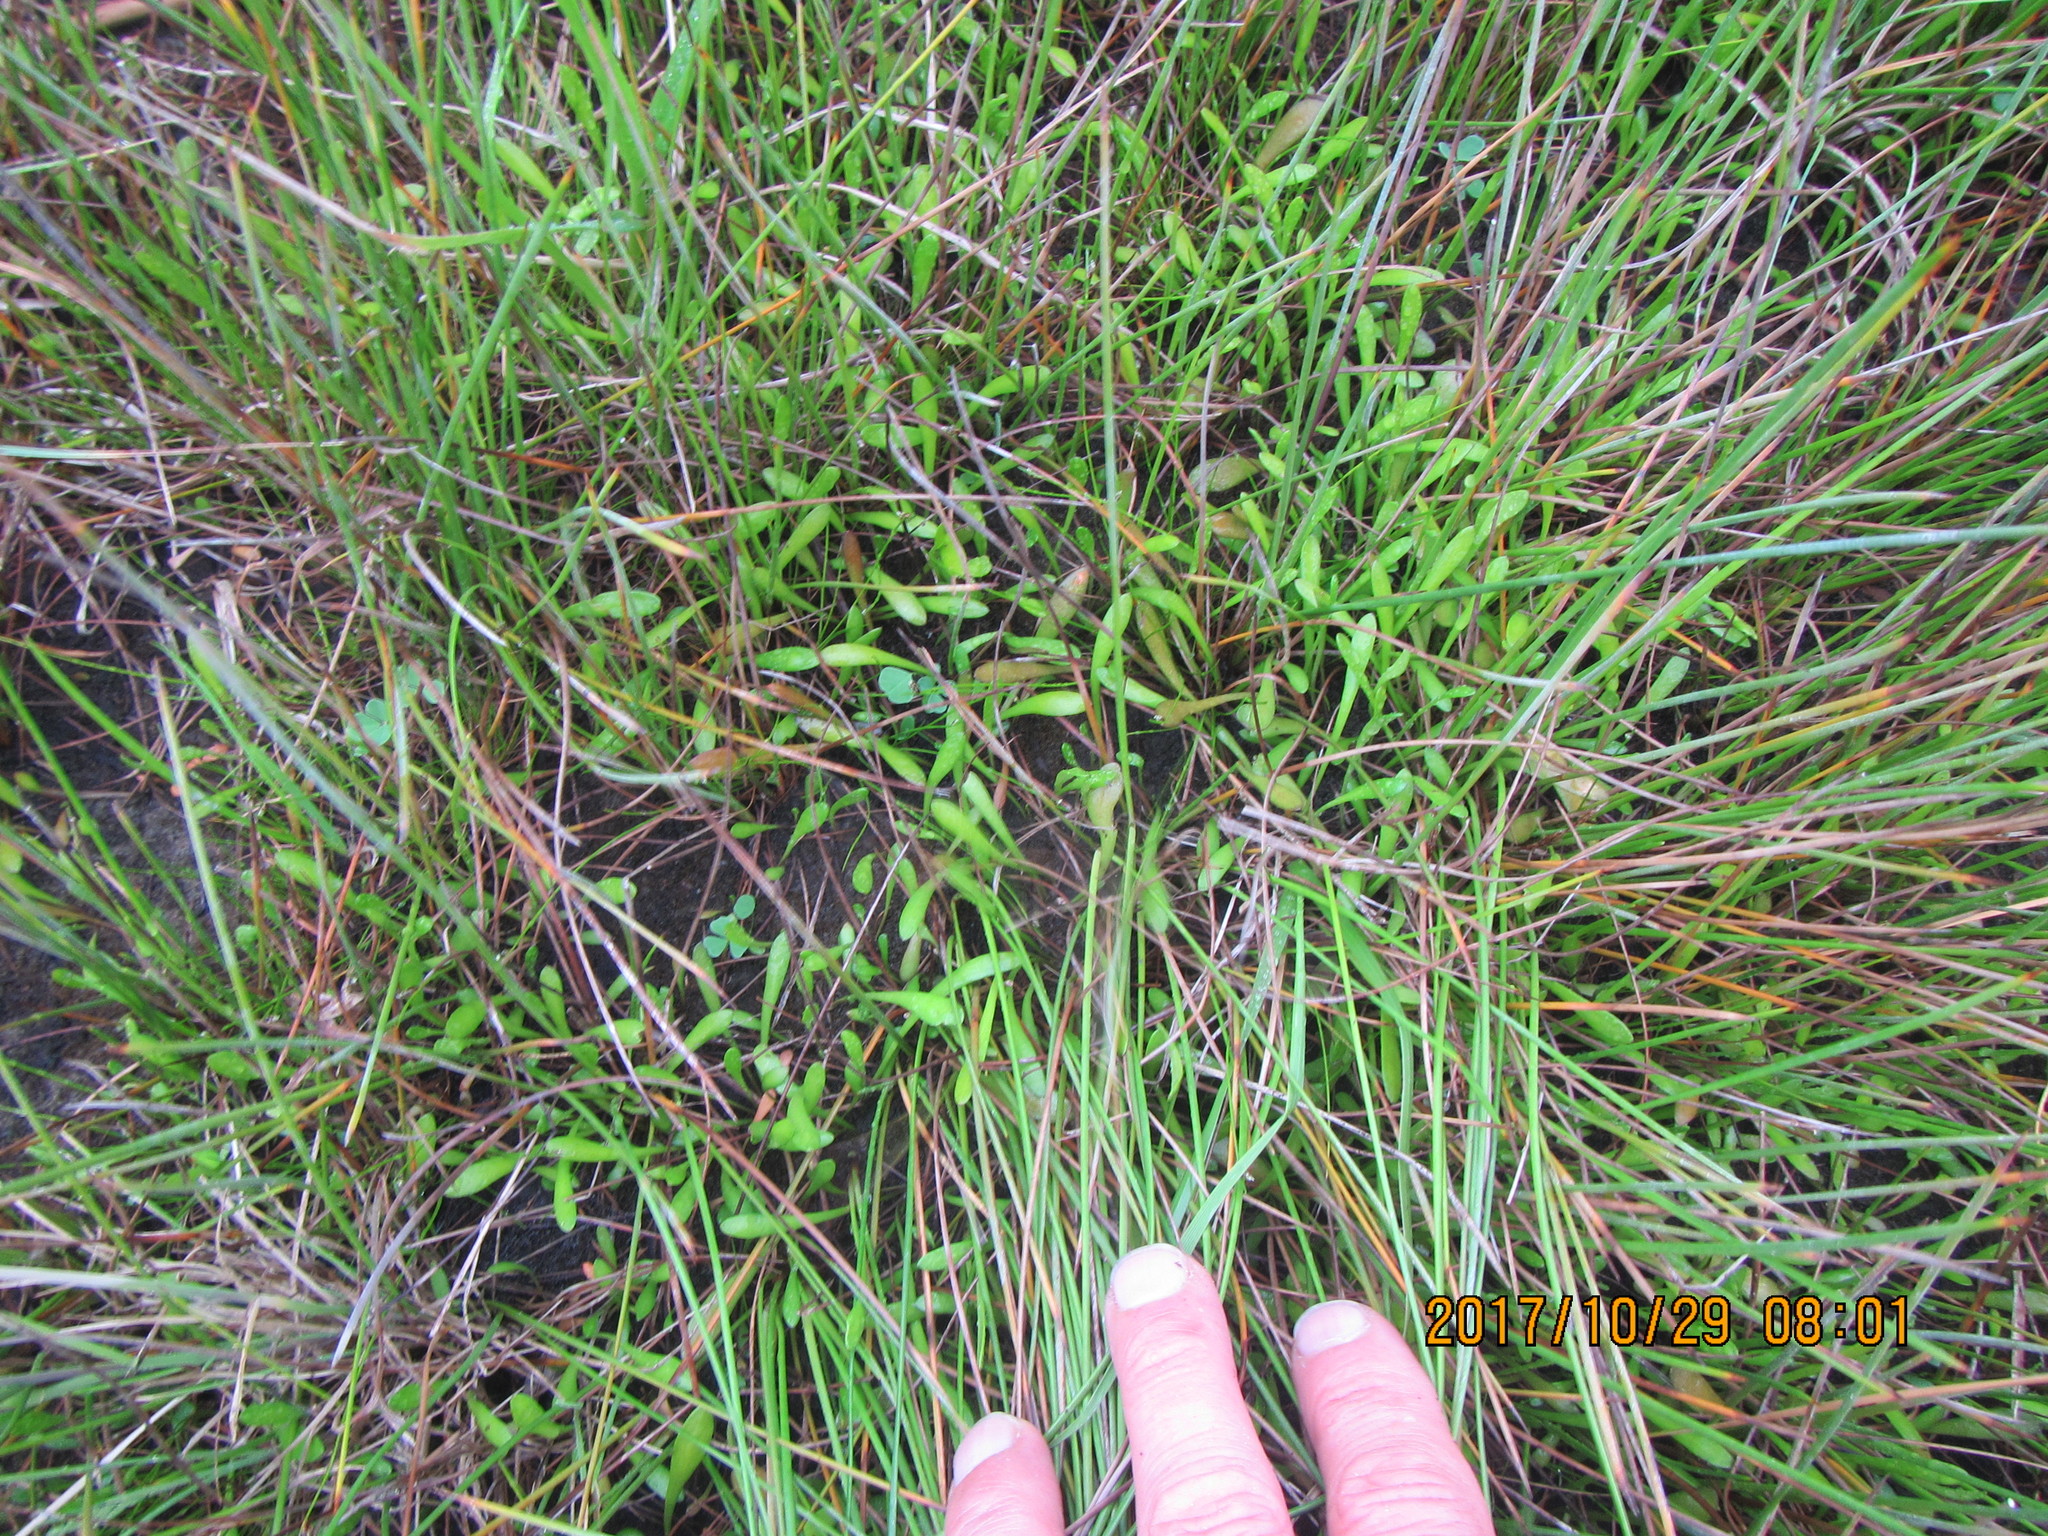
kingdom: Plantae
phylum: Tracheophyta
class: Magnoliopsida
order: Asterales
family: Goodeniaceae
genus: Goodenia
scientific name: Goodenia radicans
